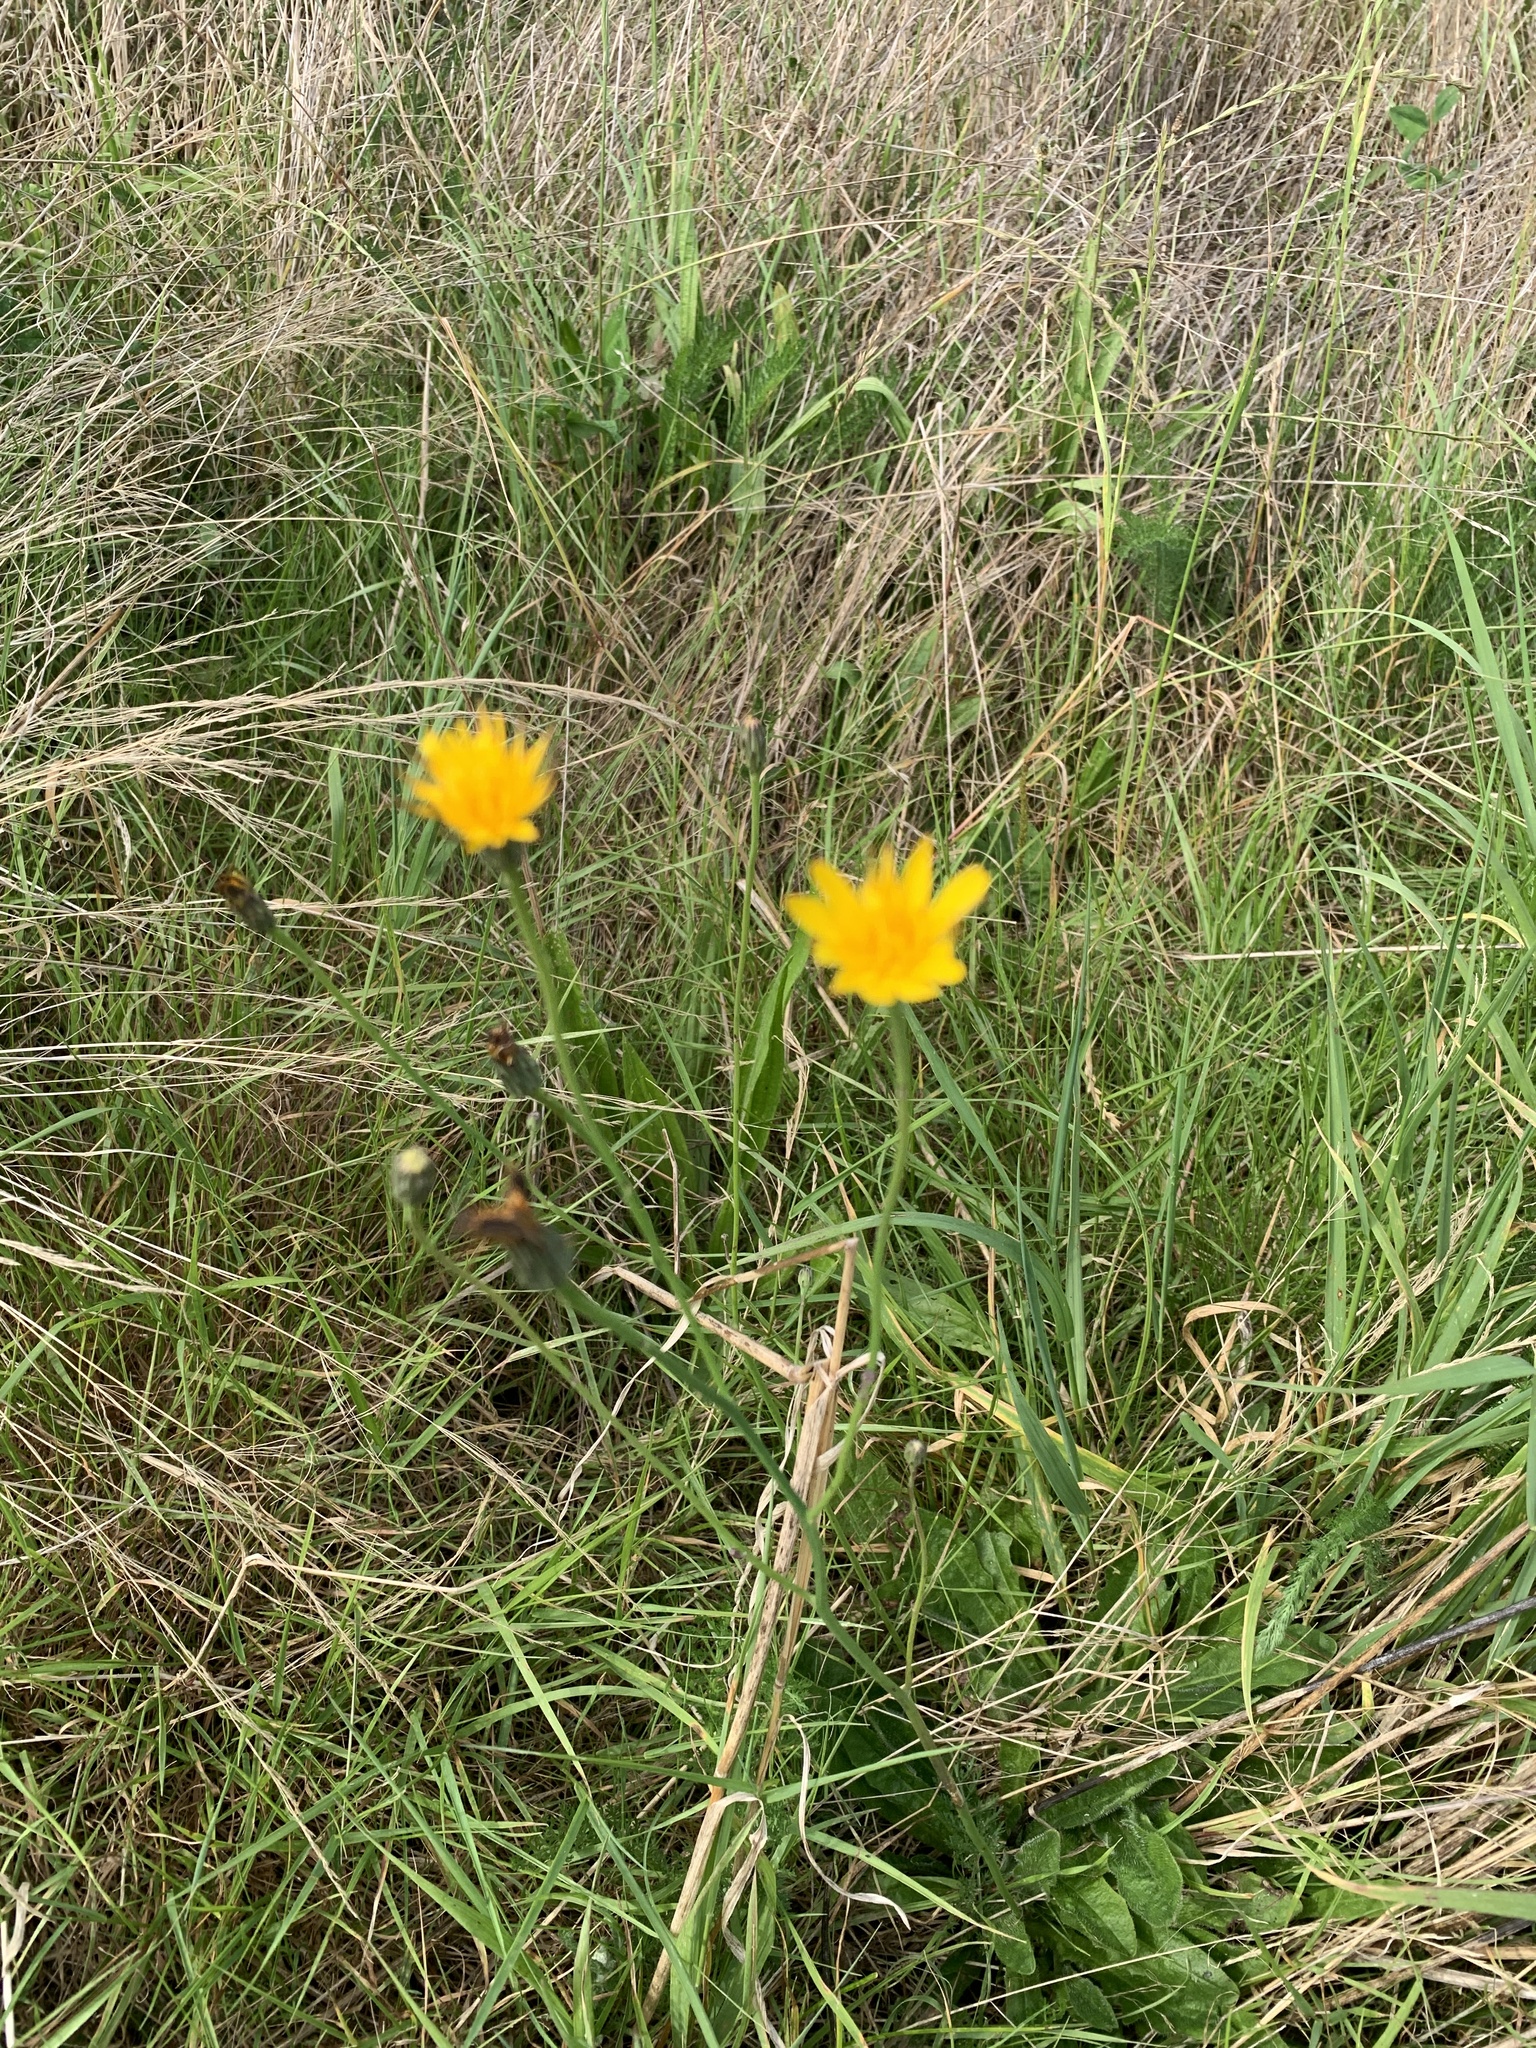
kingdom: Plantae
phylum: Tracheophyta
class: Magnoliopsida
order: Asterales
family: Asteraceae
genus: Hypochaeris
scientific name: Hypochaeris radicata
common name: Flatweed
